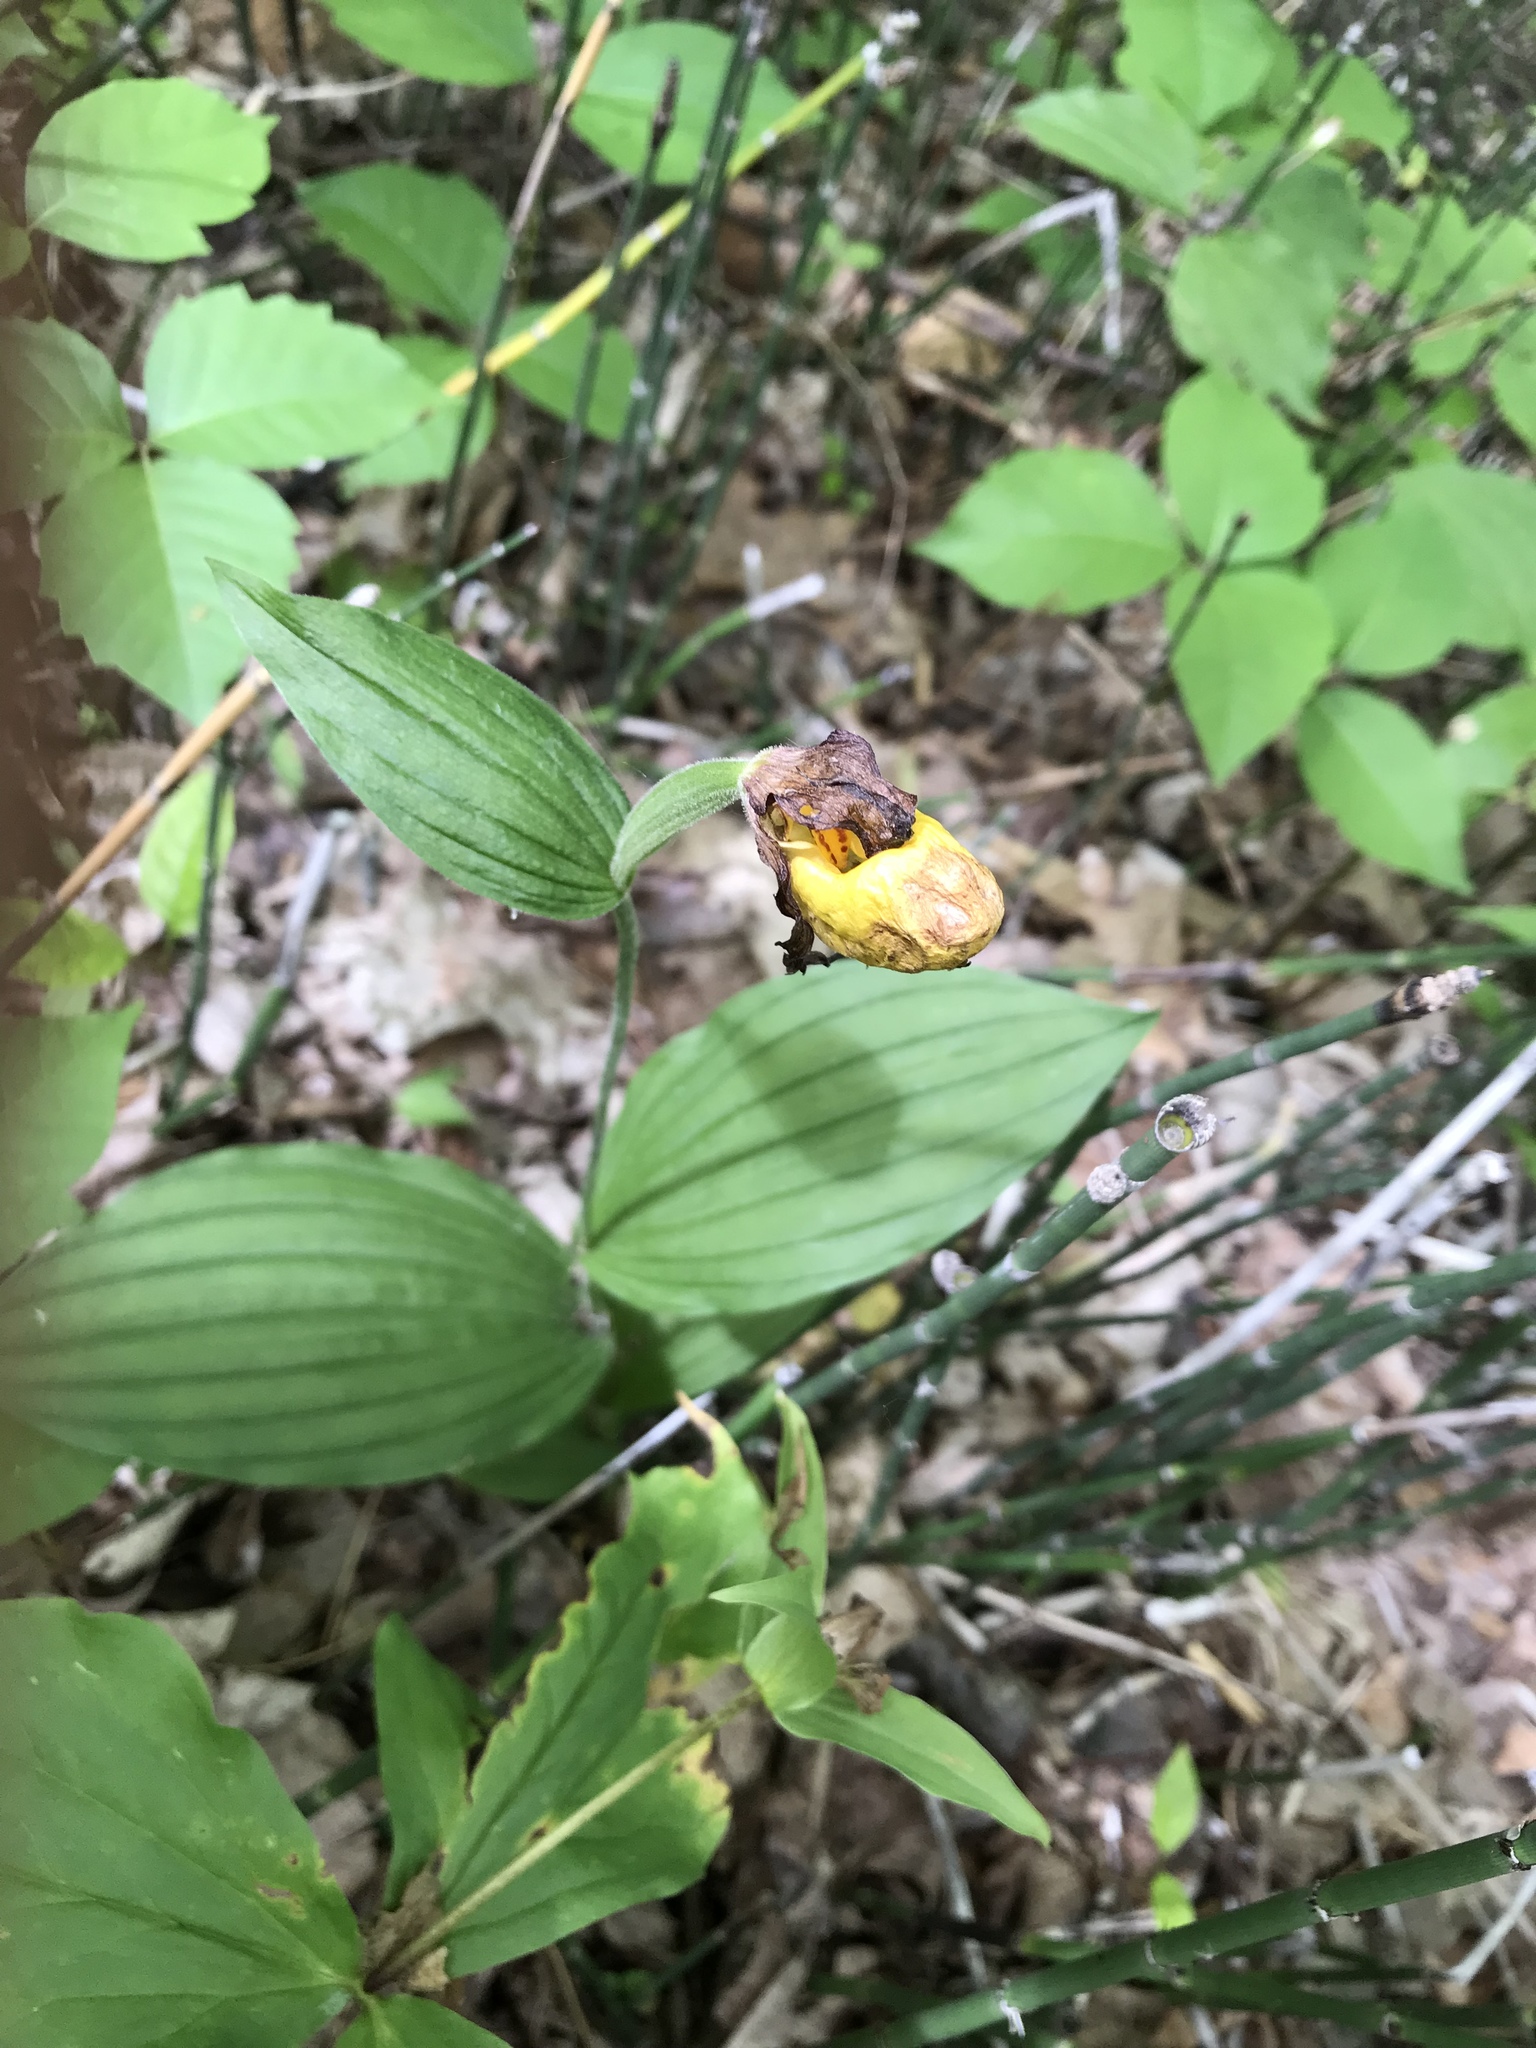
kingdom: Plantae
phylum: Tracheophyta
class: Liliopsida
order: Asparagales
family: Orchidaceae
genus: Cypripedium
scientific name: Cypripedium parviflorum
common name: American yellow lady's-slipper
